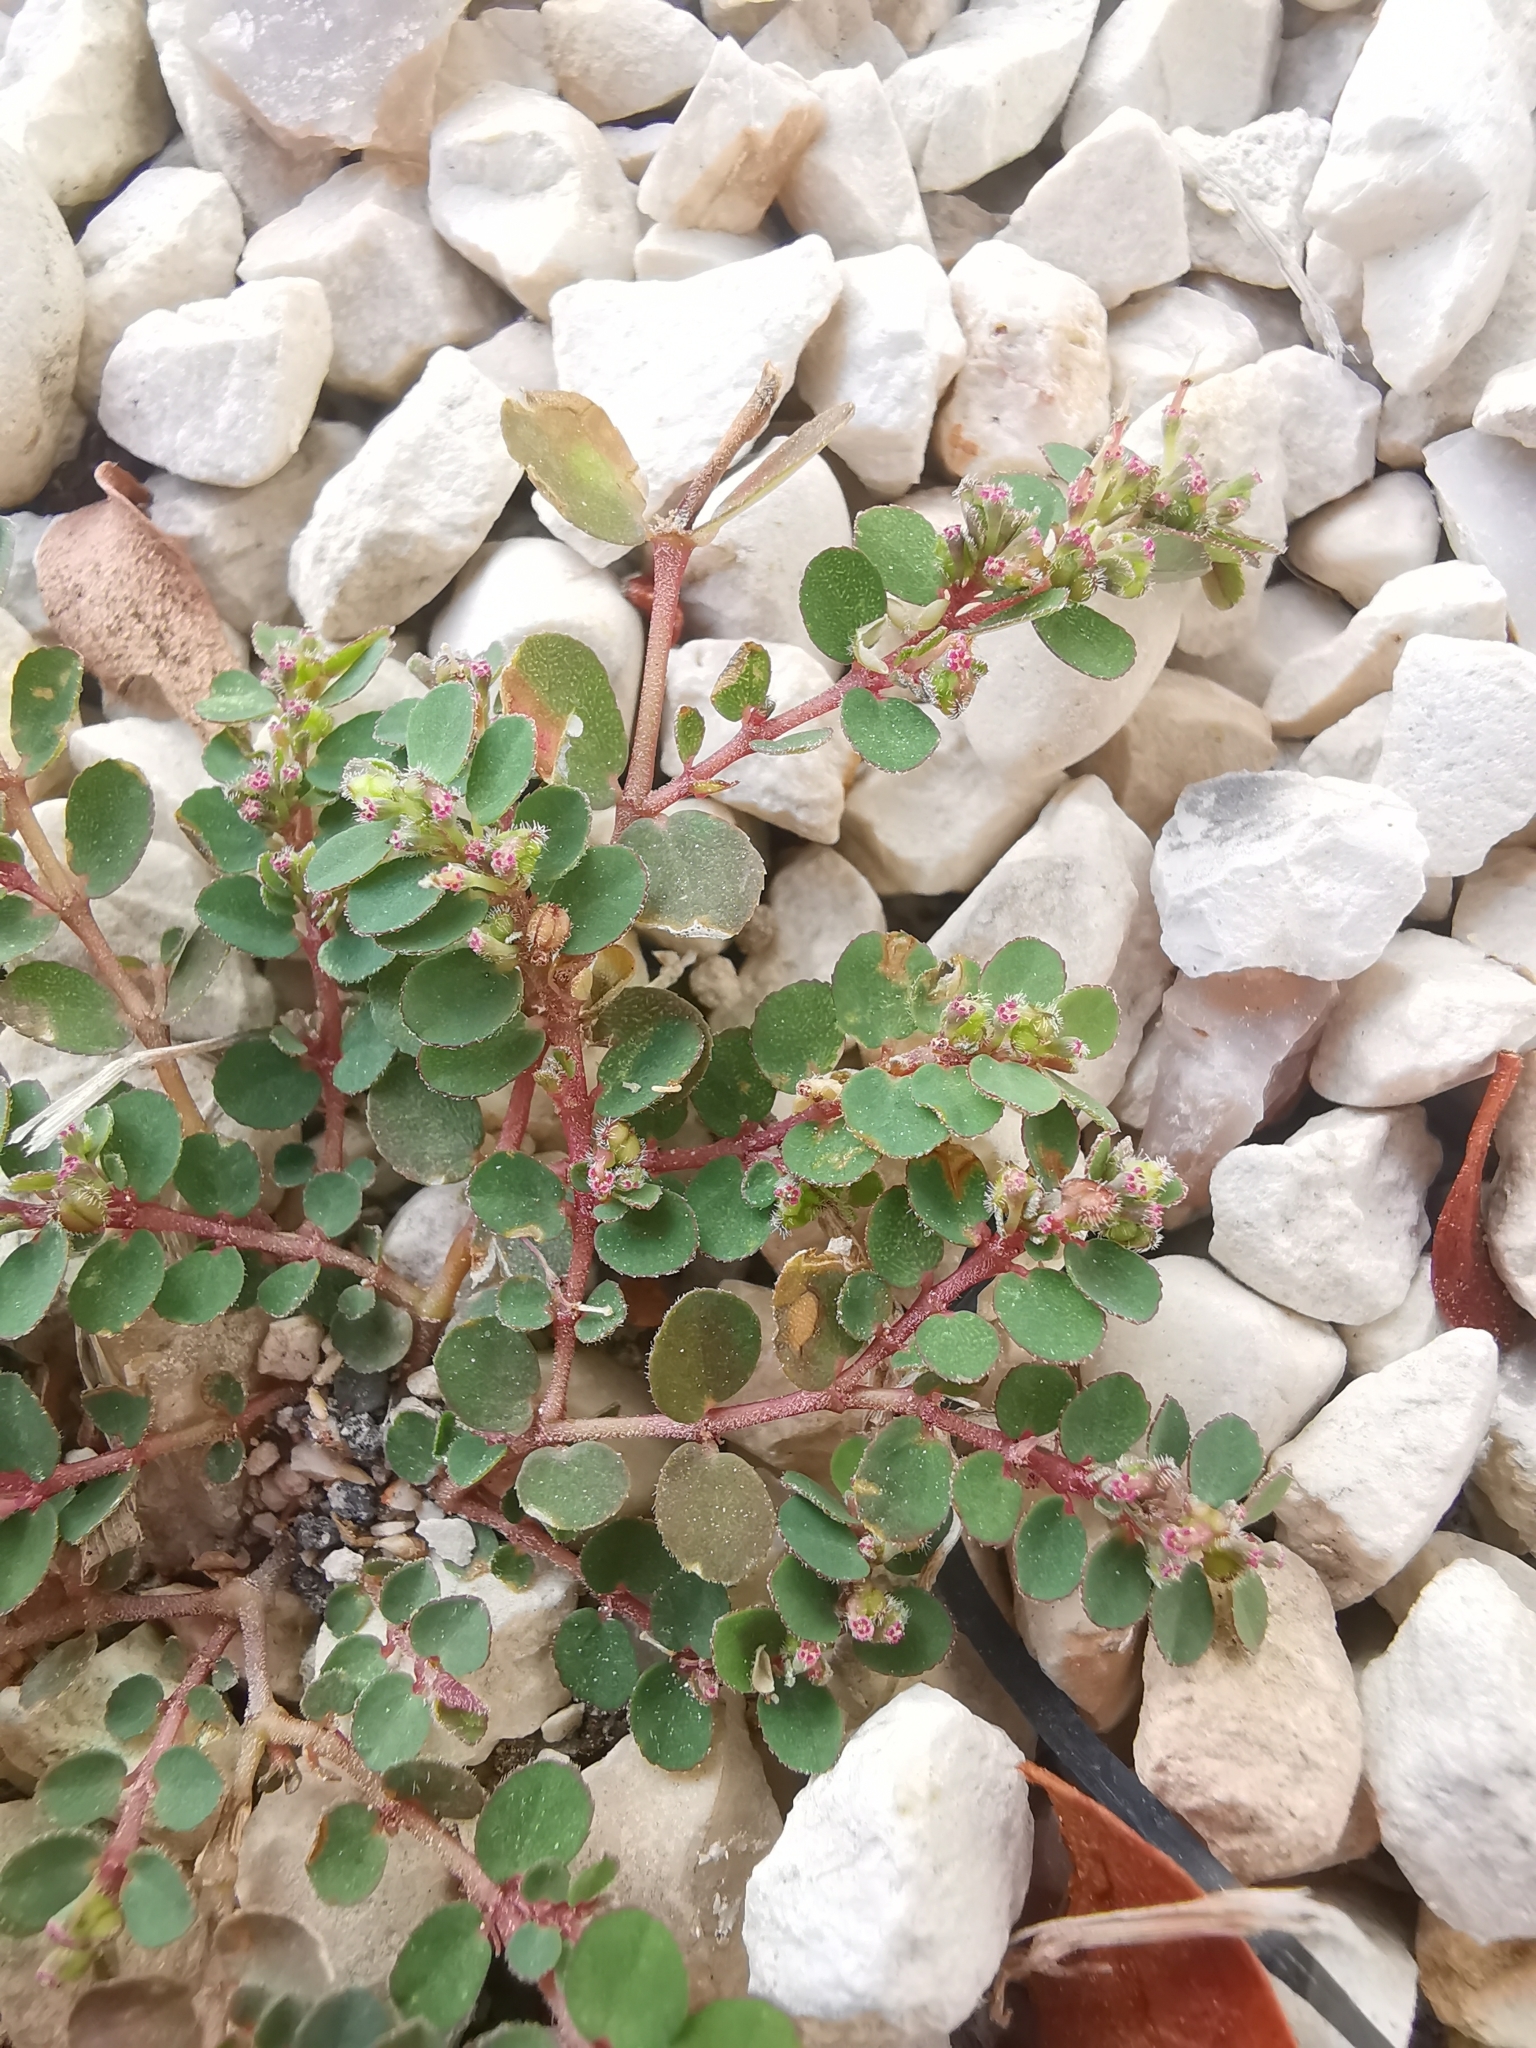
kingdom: Plantae
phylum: Tracheophyta
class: Magnoliopsida
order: Malpighiales
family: Euphorbiaceae
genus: Euphorbia
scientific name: Euphorbia prostrata
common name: Prostrate sandmat
